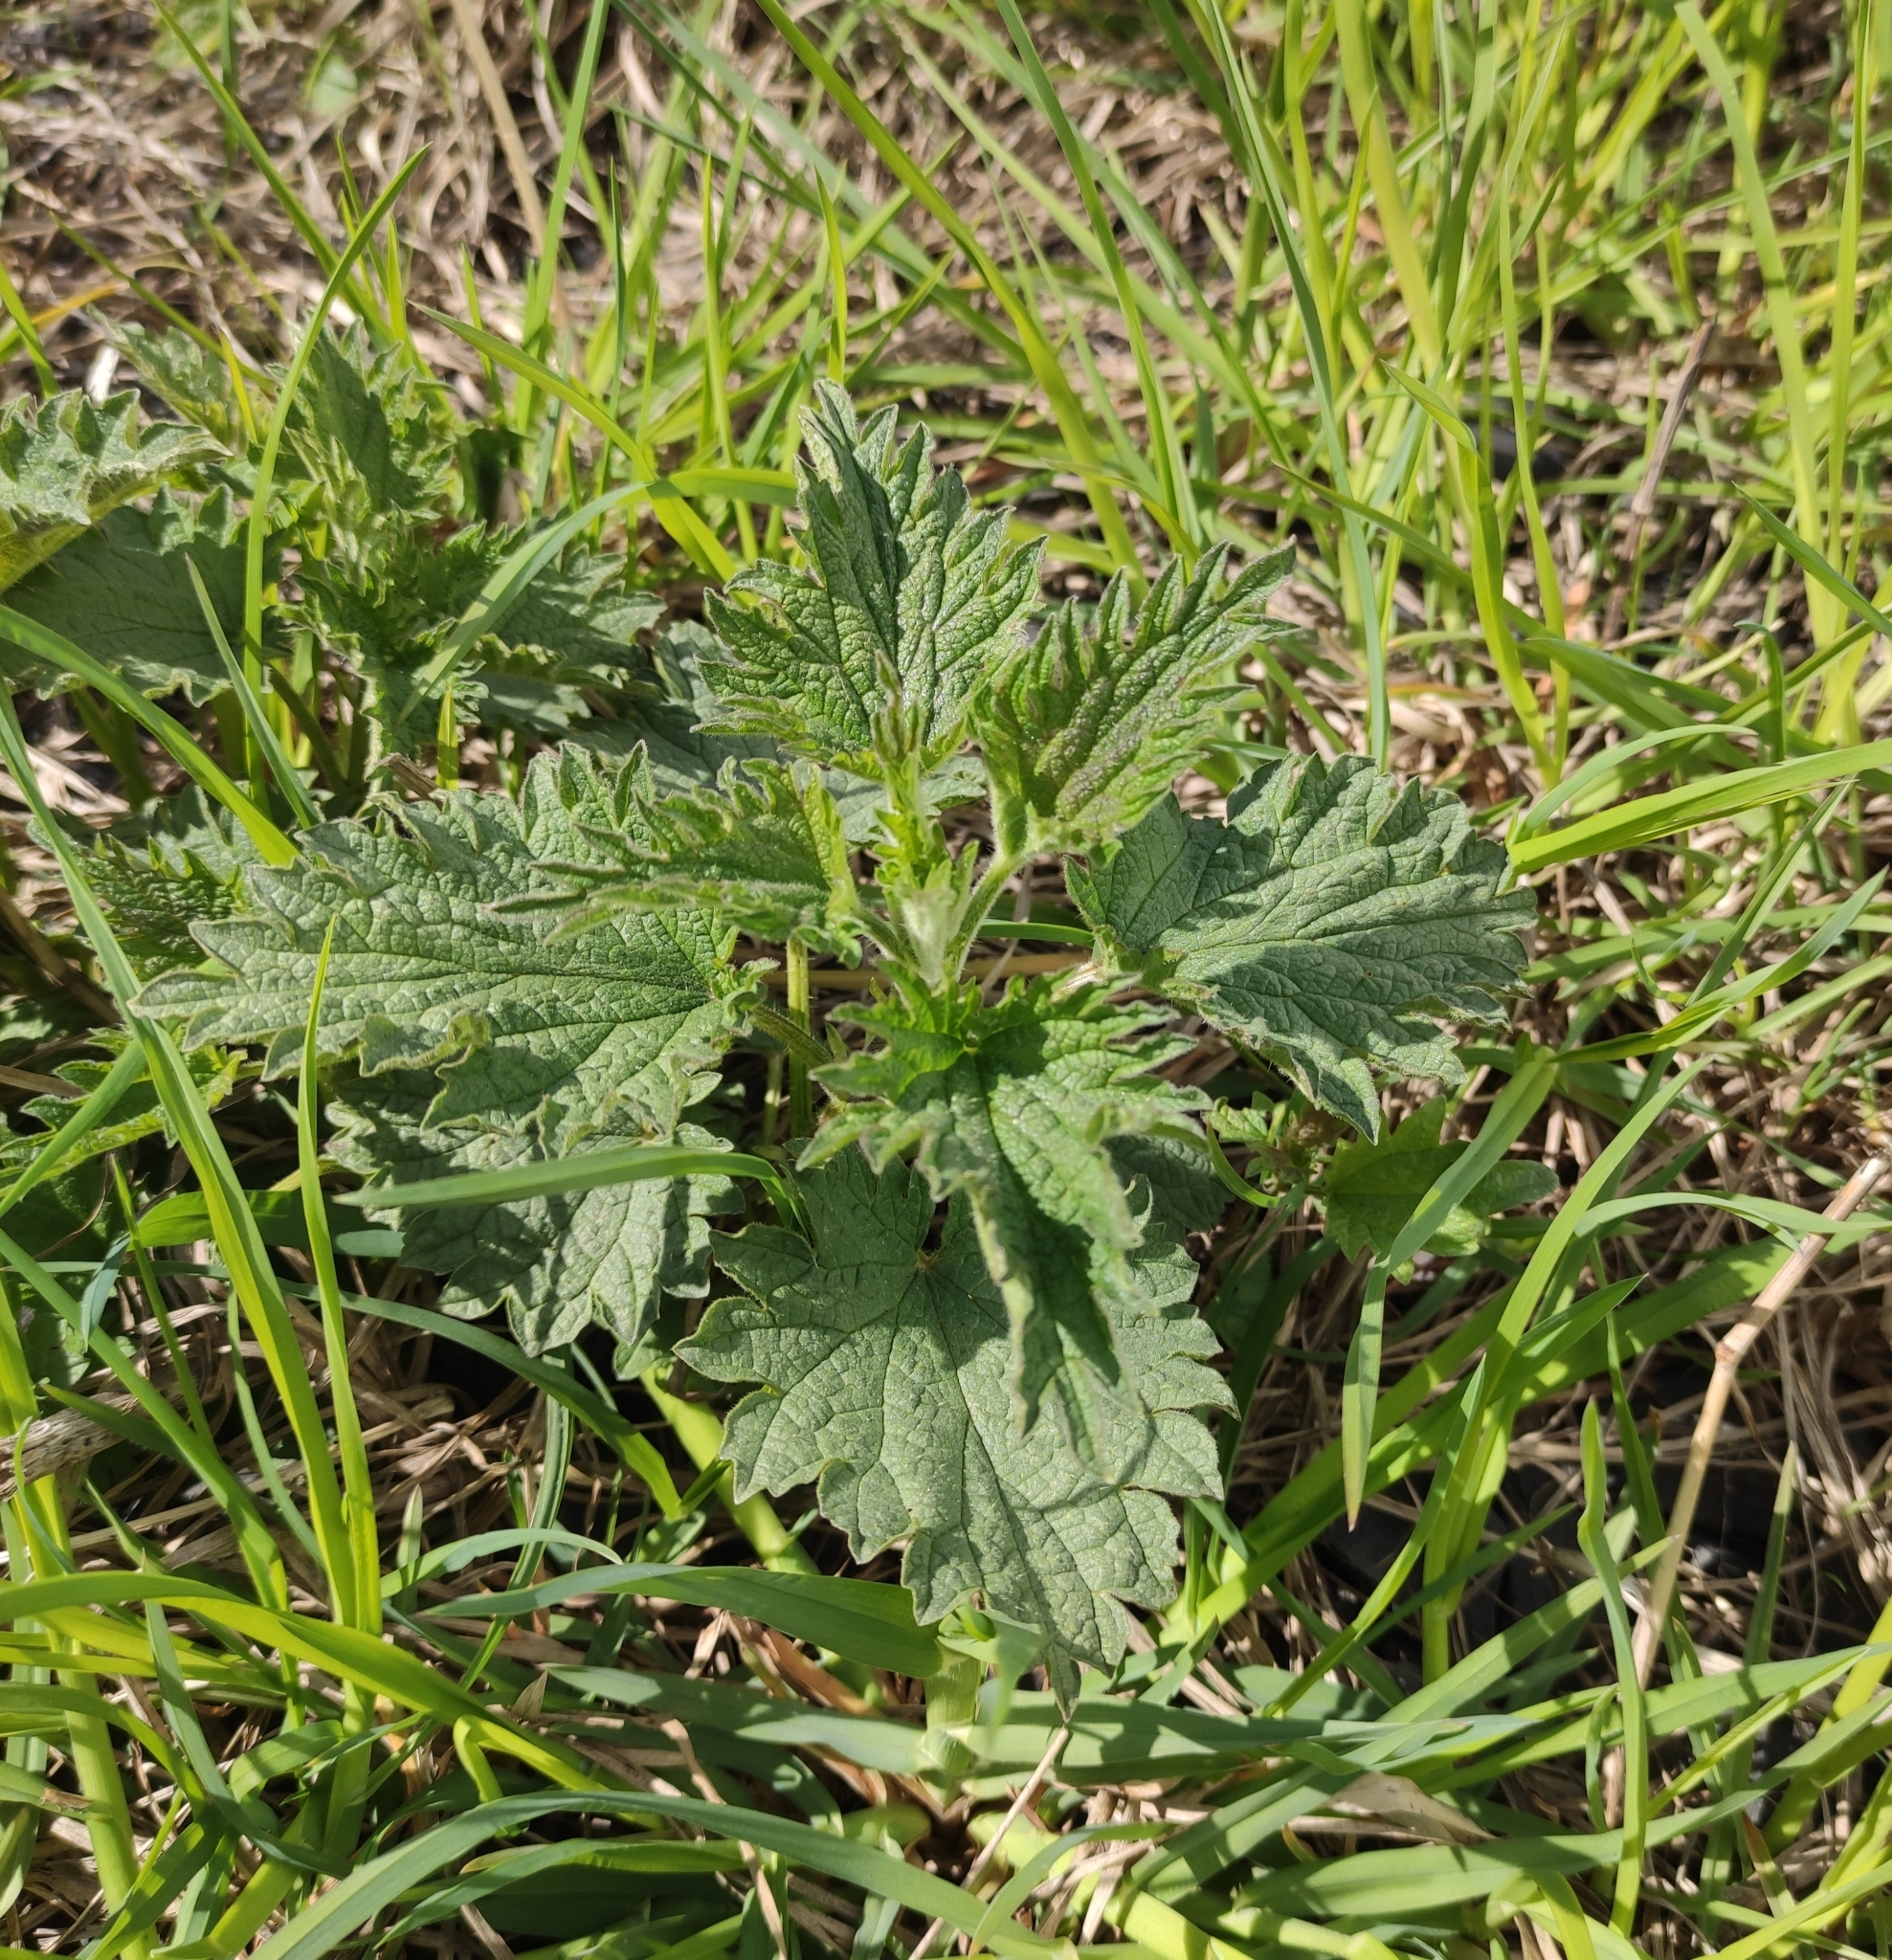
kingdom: Plantae
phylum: Tracheophyta
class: Magnoliopsida
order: Rosales
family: Urticaceae
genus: Urtica
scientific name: Urtica dioica
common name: Common nettle
